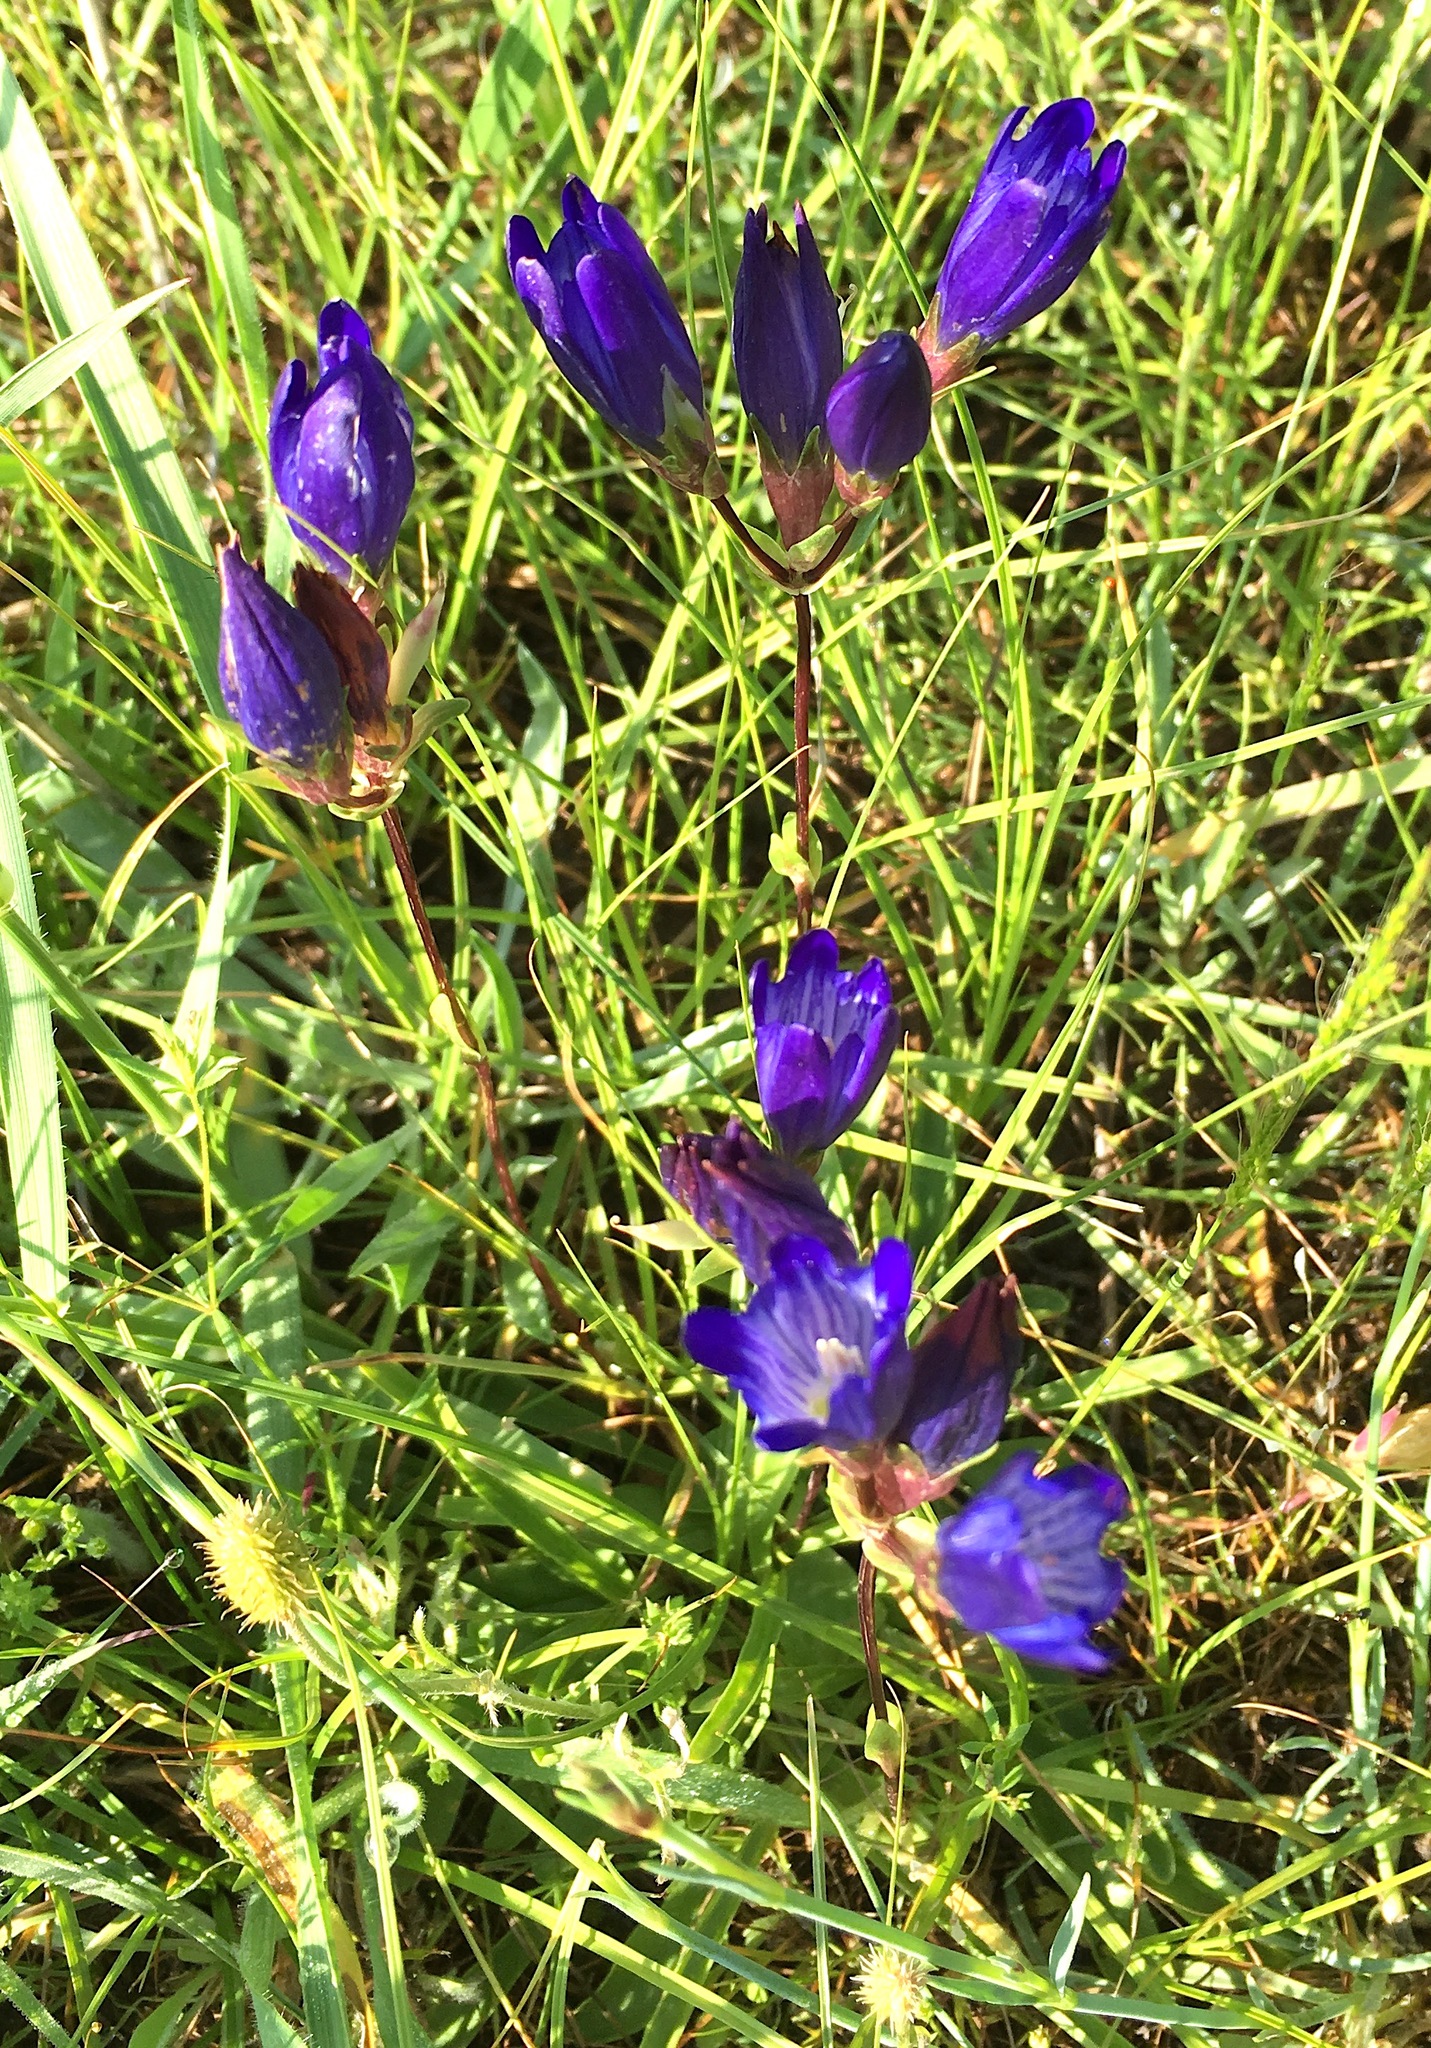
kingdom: Plantae
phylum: Tracheophyta
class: Magnoliopsida
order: Gentianales
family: Gentianaceae
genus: Gentiana
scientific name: Gentiana olivieri
